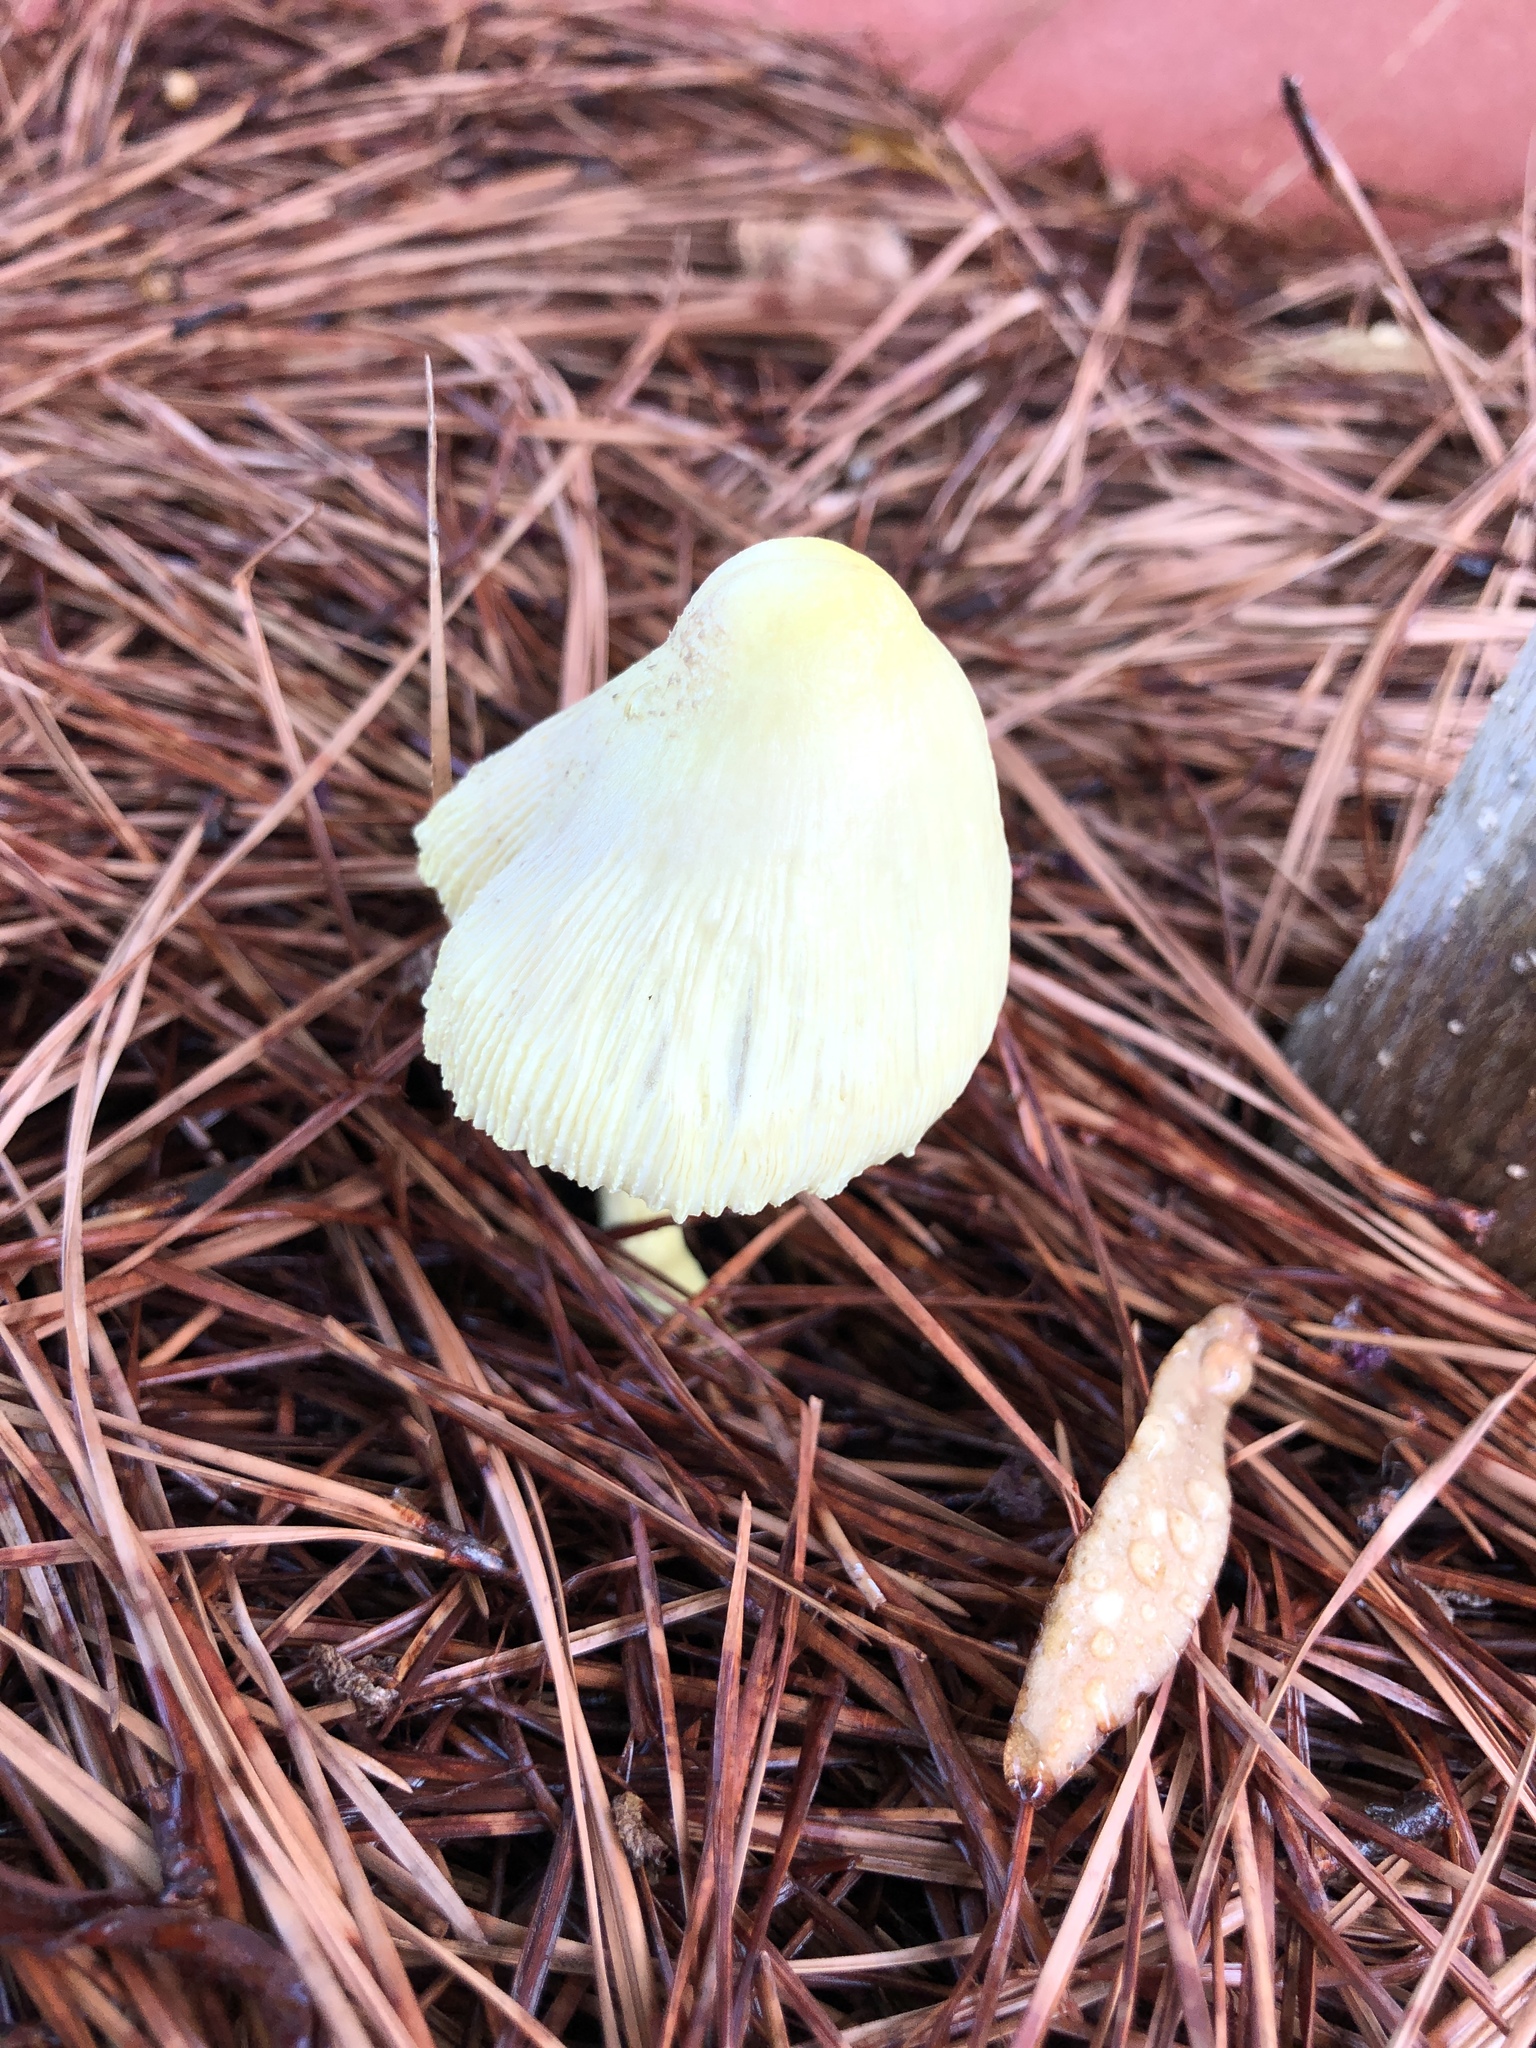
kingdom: Fungi
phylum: Basidiomycota
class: Agaricomycetes
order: Agaricales
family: Agaricaceae
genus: Leucocoprinus
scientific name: Leucocoprinus birnbaumii
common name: Plantpot dapperling
